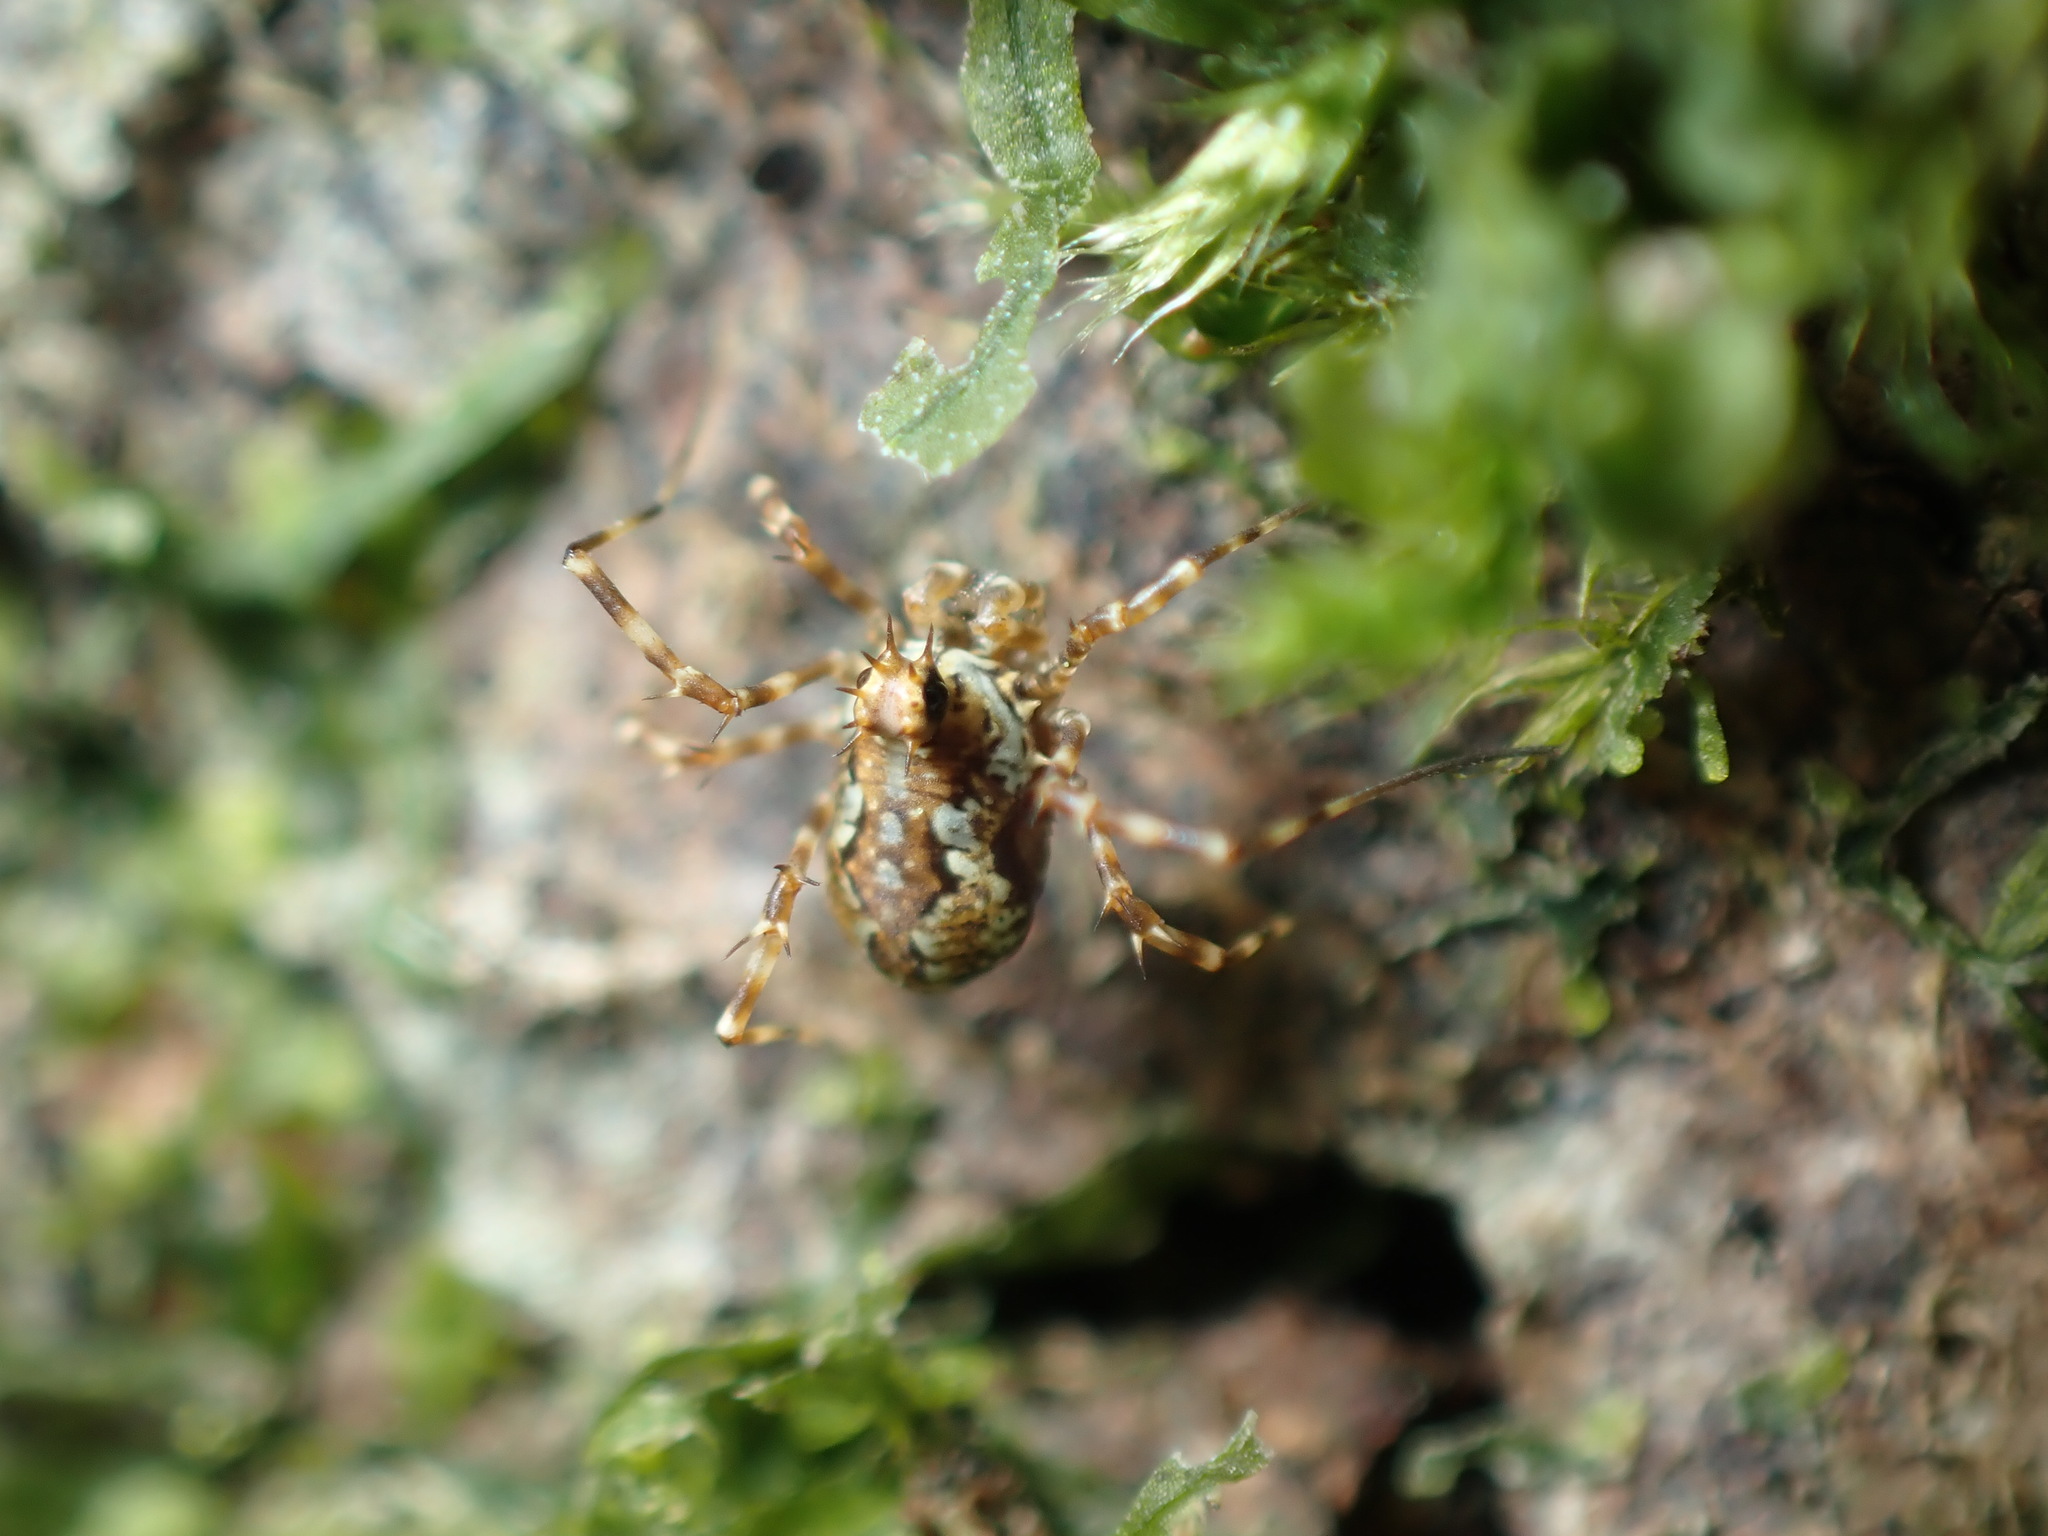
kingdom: Animalia
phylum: Arthropoda
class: Arachnida
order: Opiliones
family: Phalangiidae
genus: Megabunus
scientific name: Megabunus diadema
